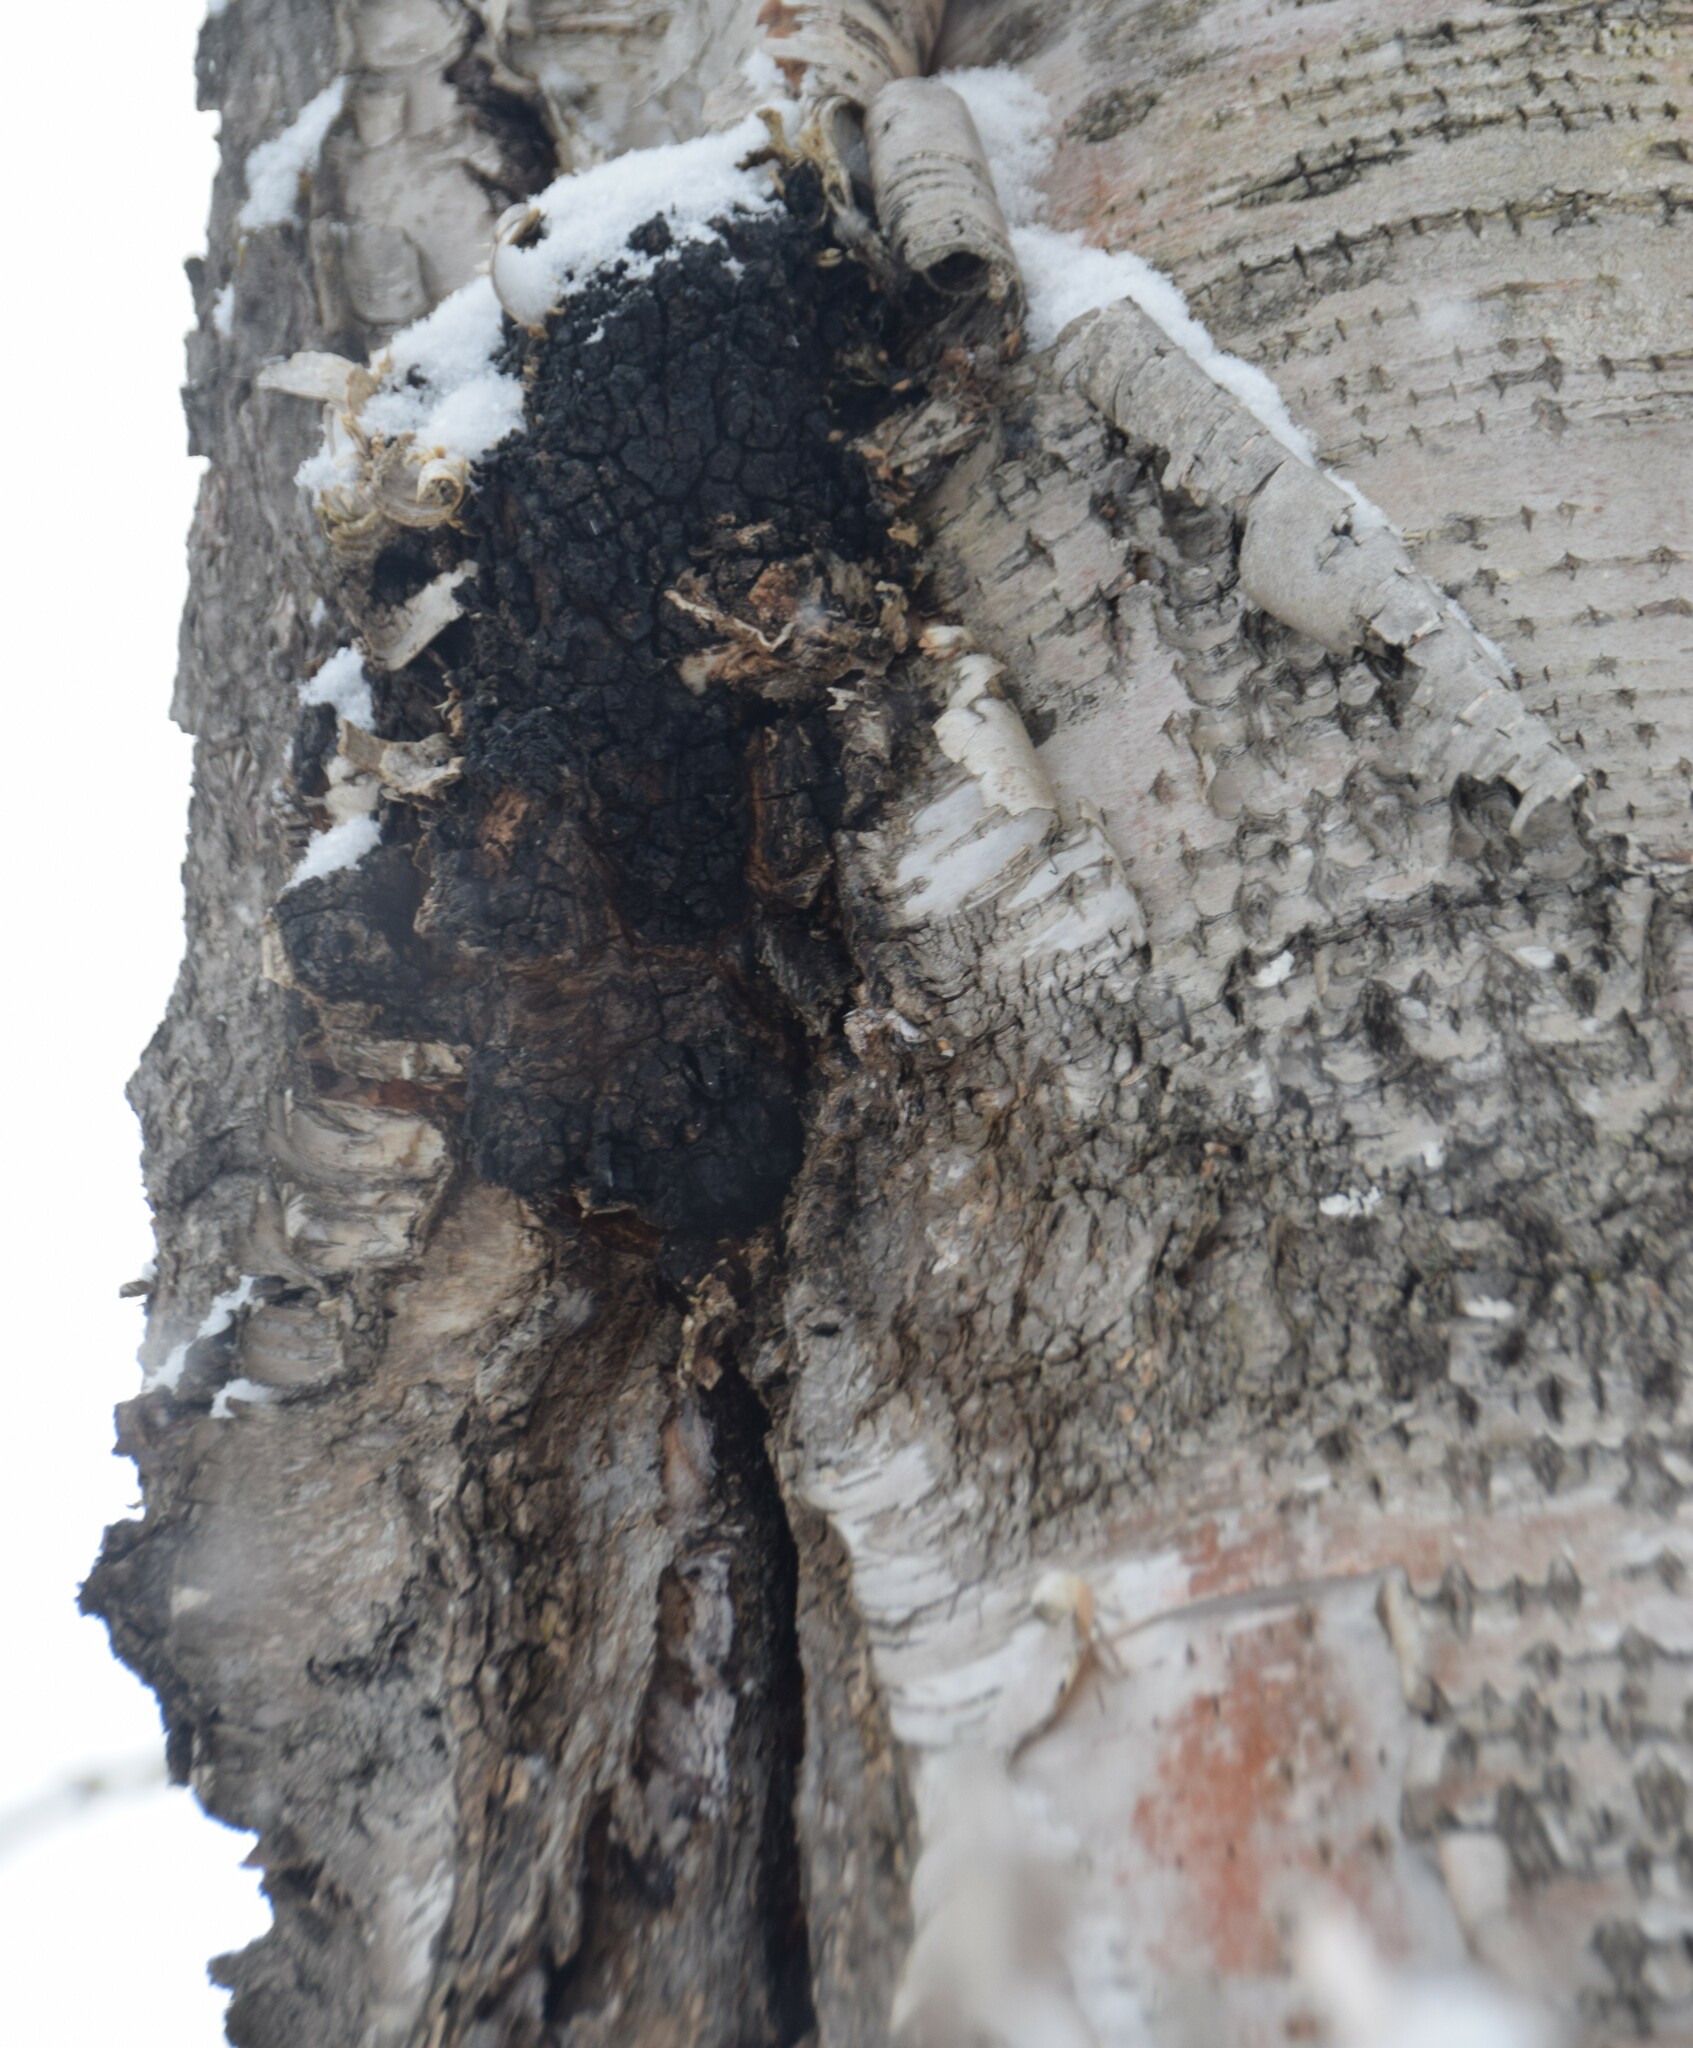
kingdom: Fungi
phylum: Basidiomycota
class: Agaricomycetes
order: Hymenochaetales
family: Hymenochaetaceae
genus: Inonotus
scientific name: Inonotus obliquus
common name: Chaga
